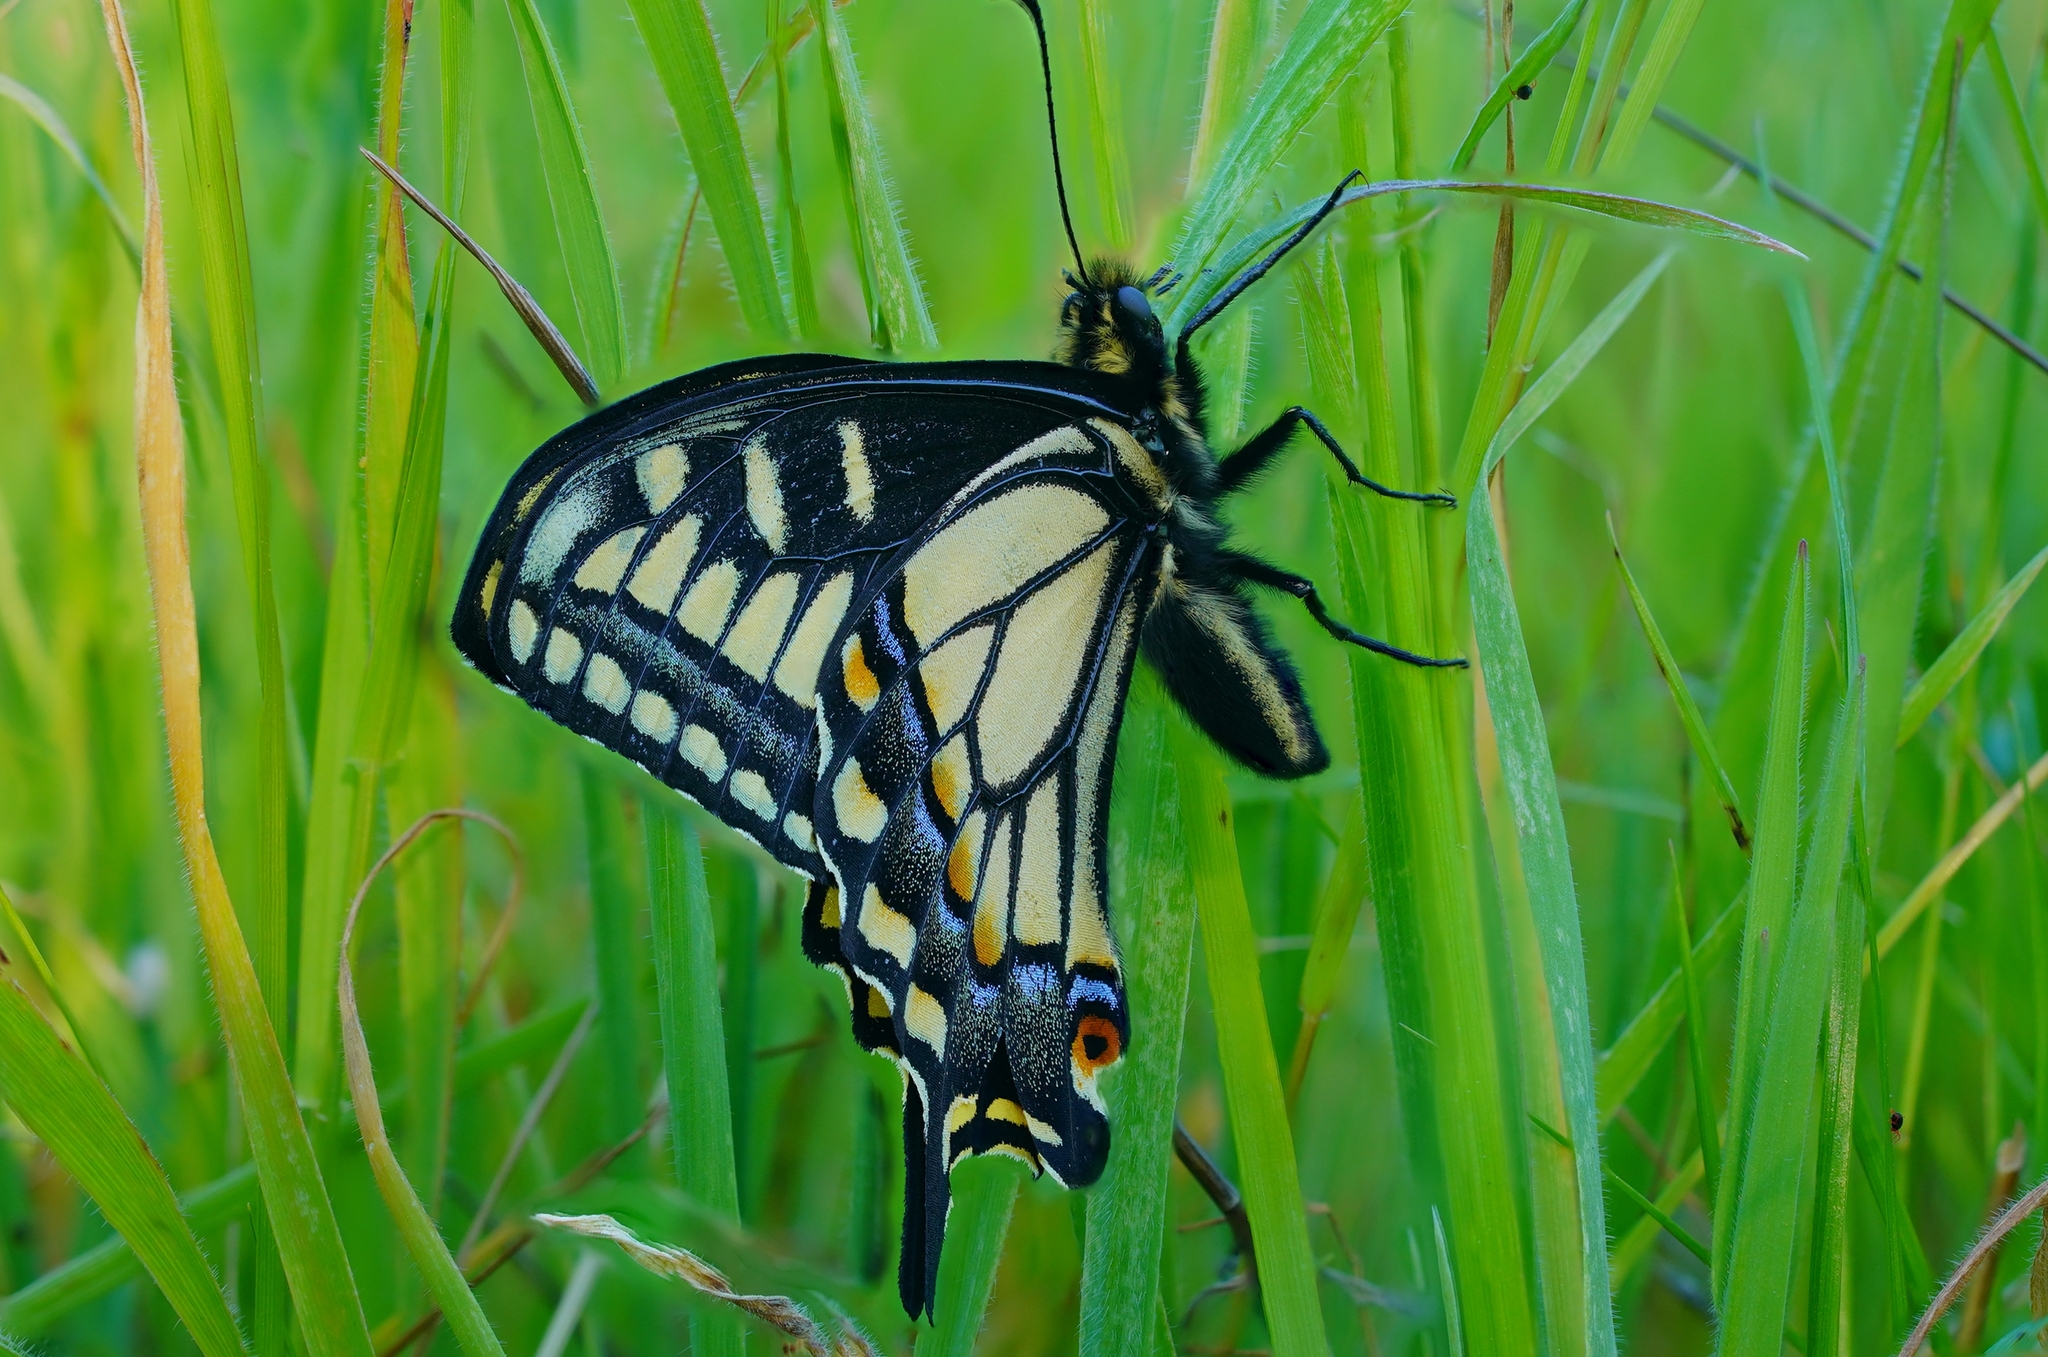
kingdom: Animalia
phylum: Arthropoda
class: Insecta
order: Lepidoptera
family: Papilionidae
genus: Papilio
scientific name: Papilio zelicaon
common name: Anise swallowtail
